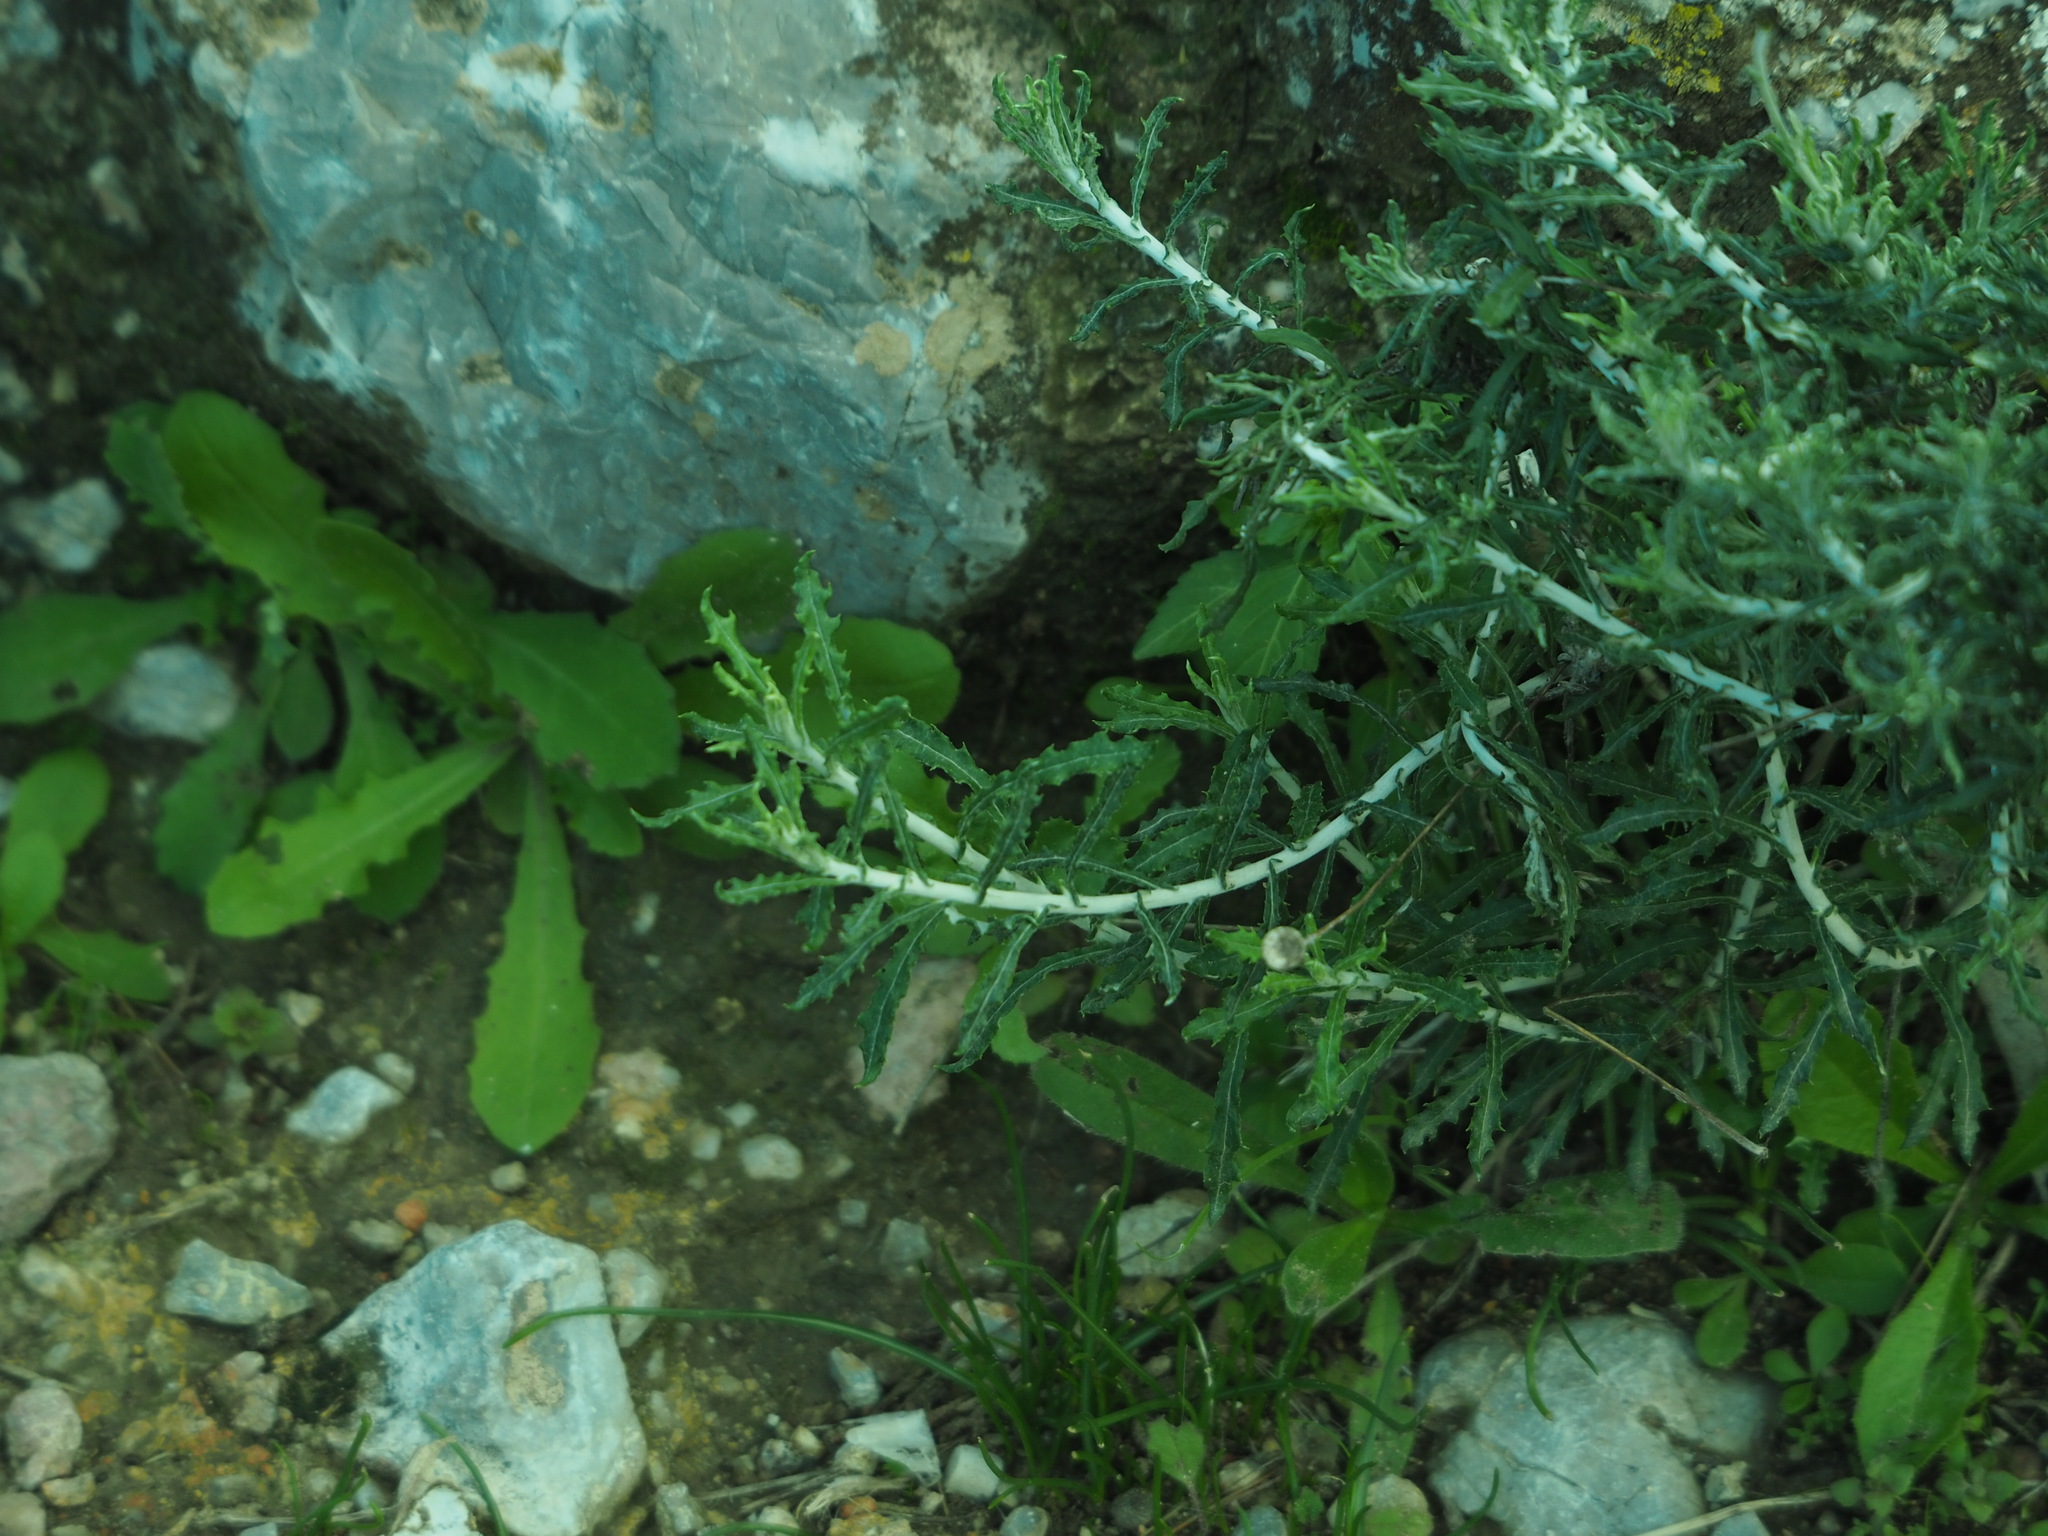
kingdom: Plantae
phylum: Tracheophyta
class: Magnoliopsida
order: Asterales
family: Asteraceae
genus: Phagnalon
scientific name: Phagnalon graecum
